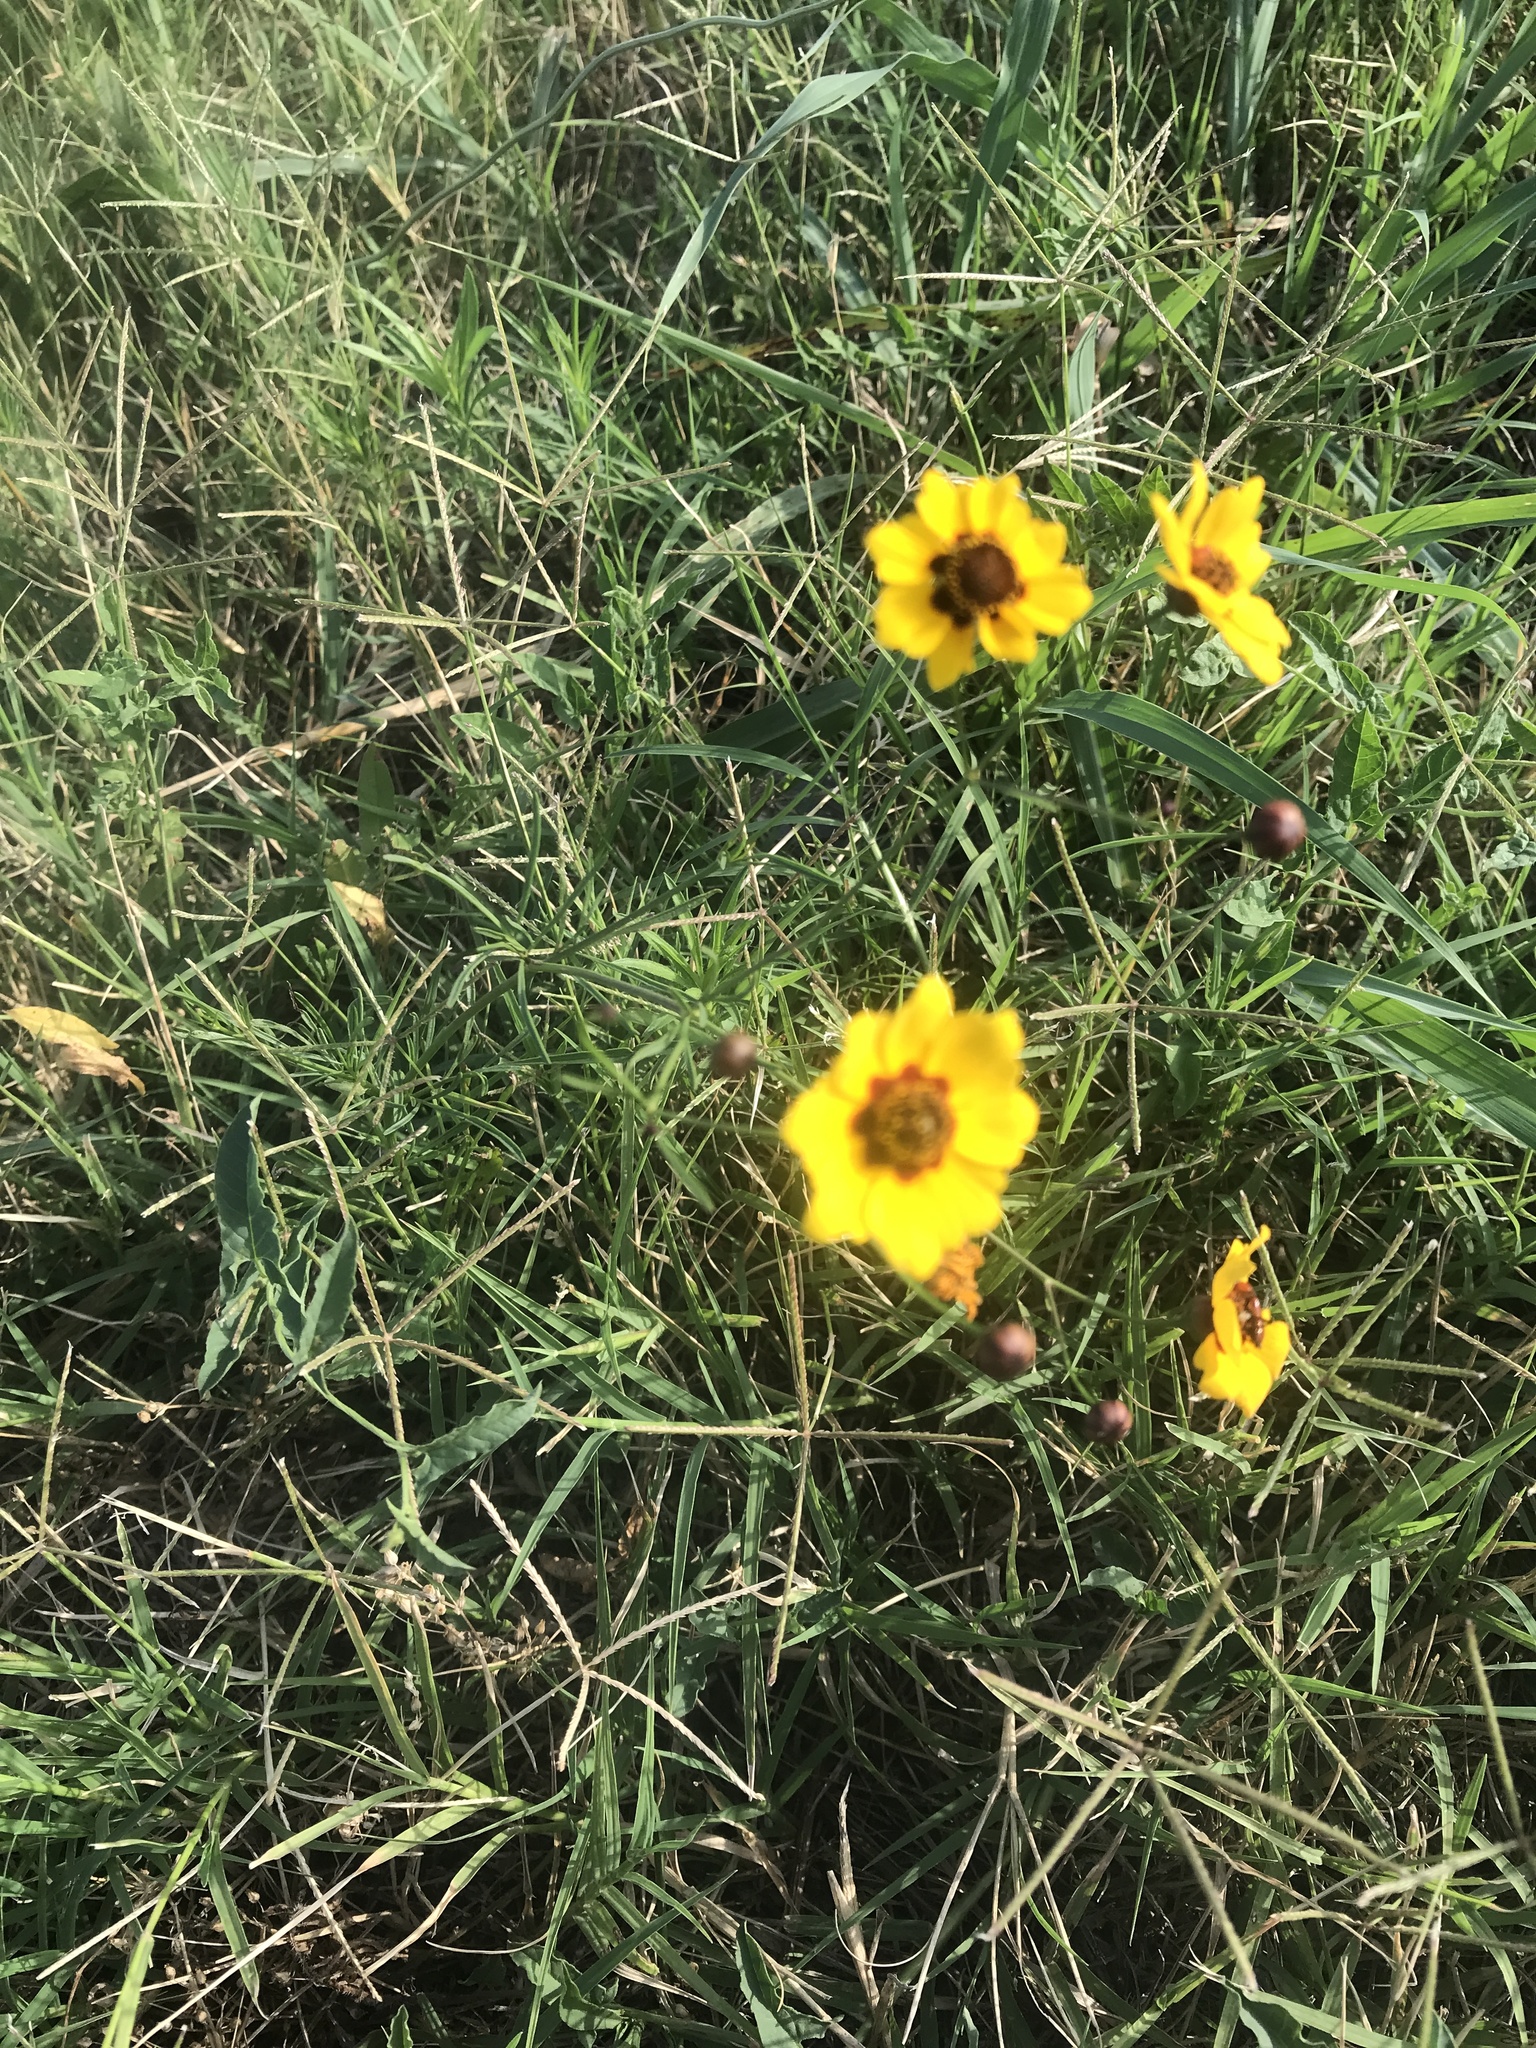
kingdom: Plantae
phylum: Tracheophyta
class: Magnoliopsida
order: Asterales
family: Asteraceae
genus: Coreopsis
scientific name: Coreopsis tinctoria
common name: Garden tickseed
